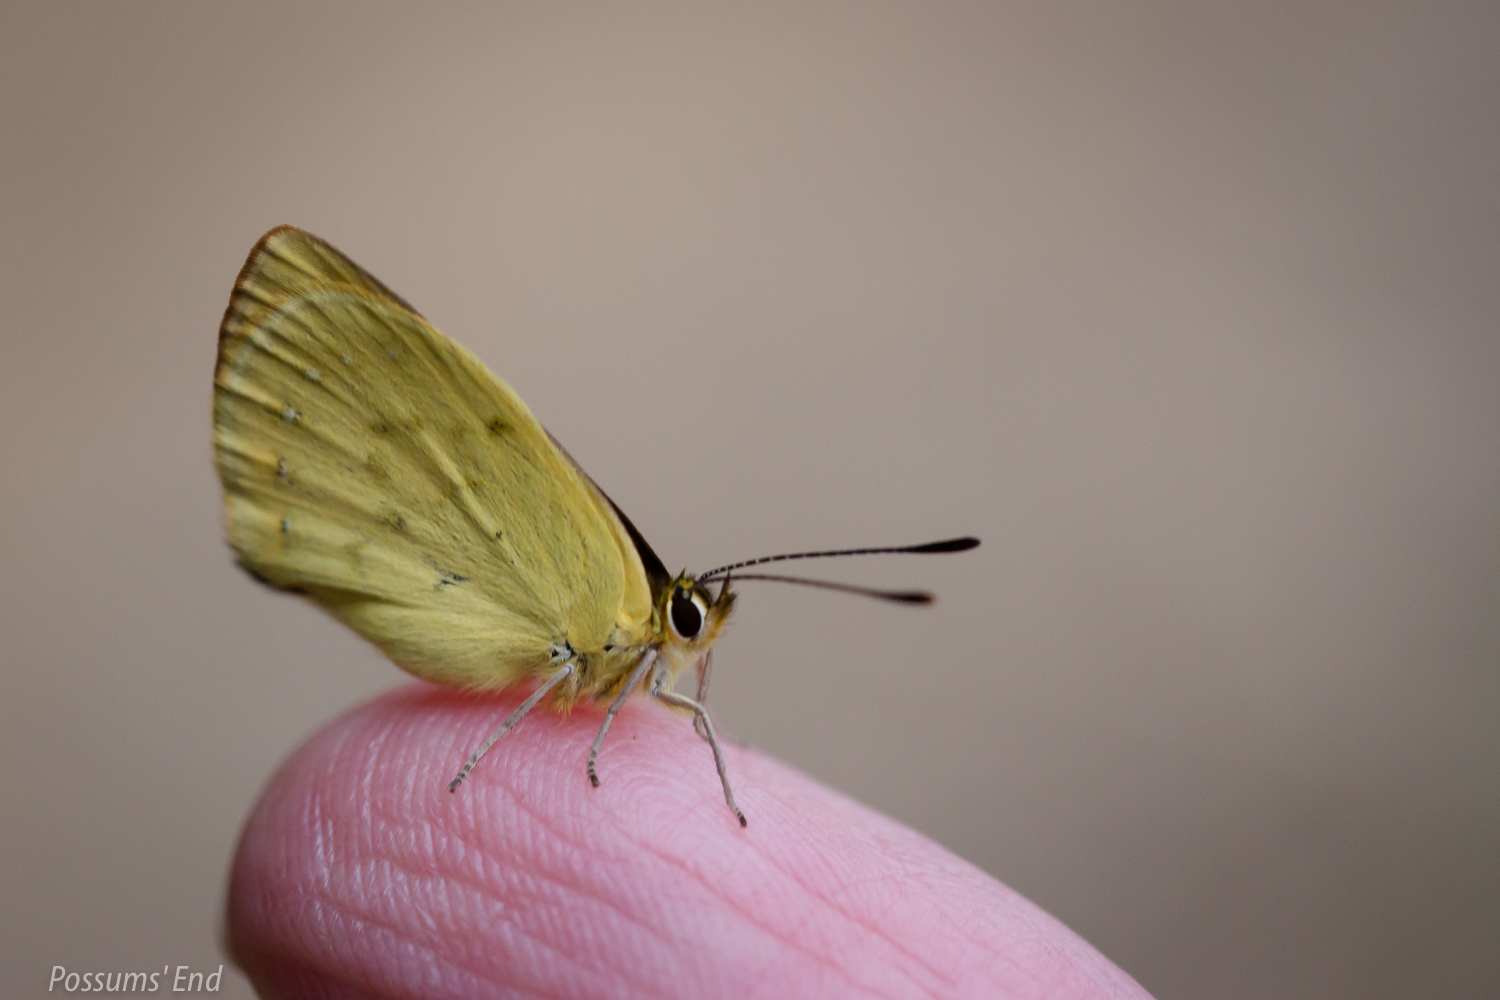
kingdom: Animalia
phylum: Arthropoda
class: Insecta
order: Lepidoptera
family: Lycaenidae
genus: Lycaena
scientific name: Lycaena
